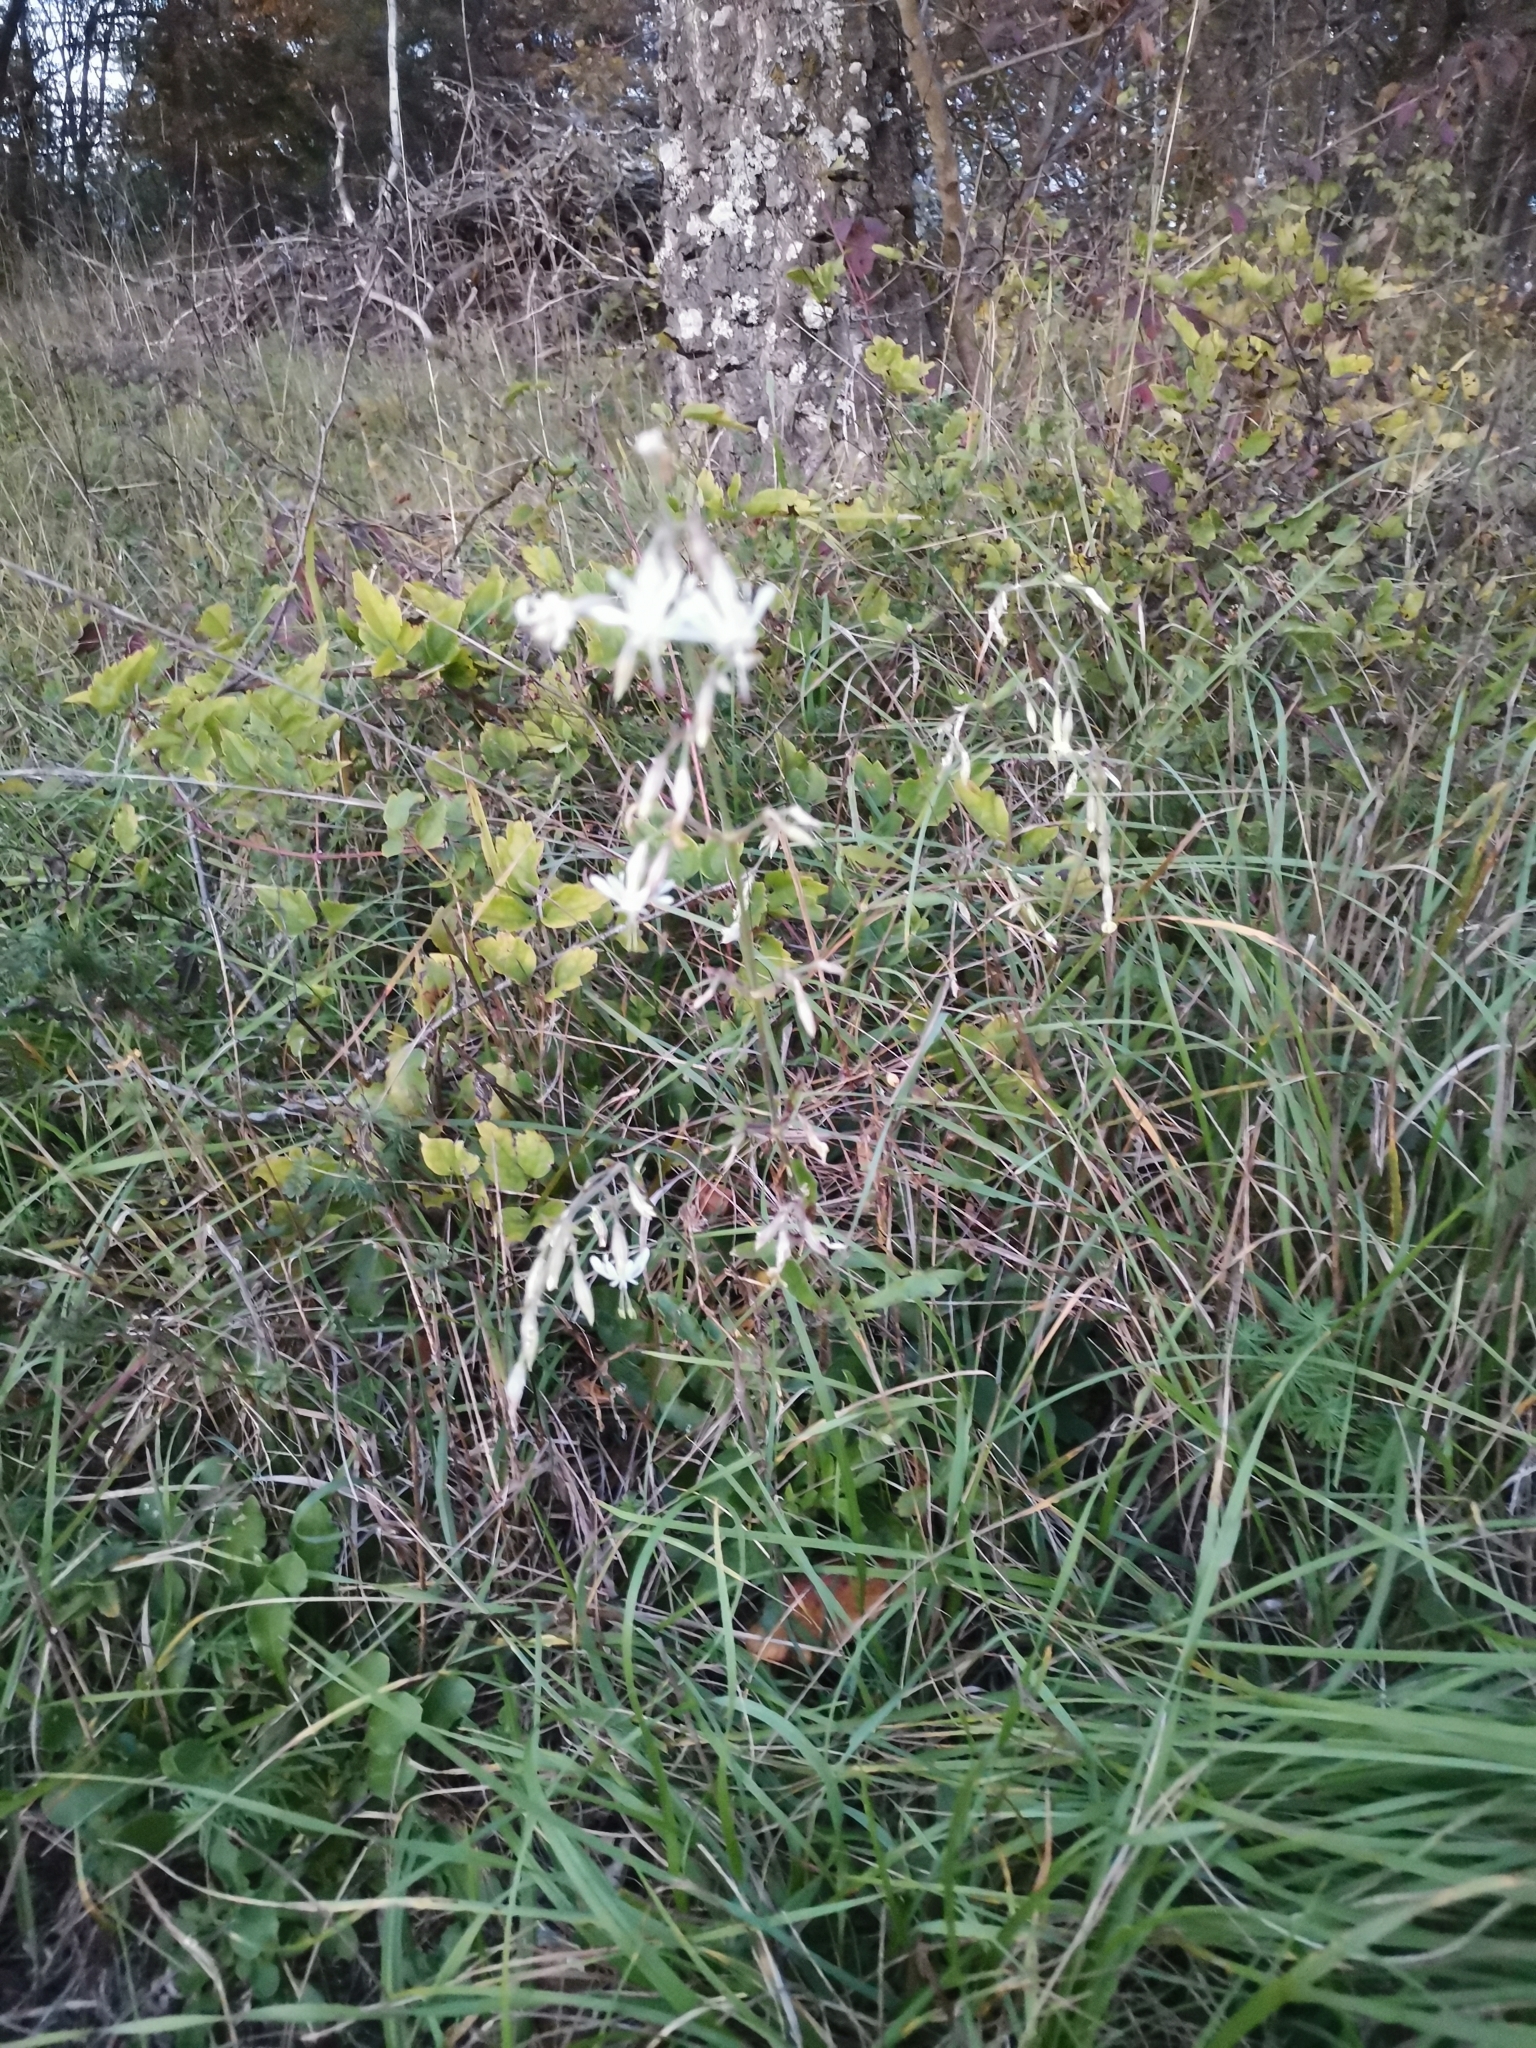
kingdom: Plantae
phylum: Tracheophyta
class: Magnoliopsida
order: Caryophyllales
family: Caryophyllaceae
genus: Silene
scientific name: Silene nutans
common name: Nottingham catchfly
